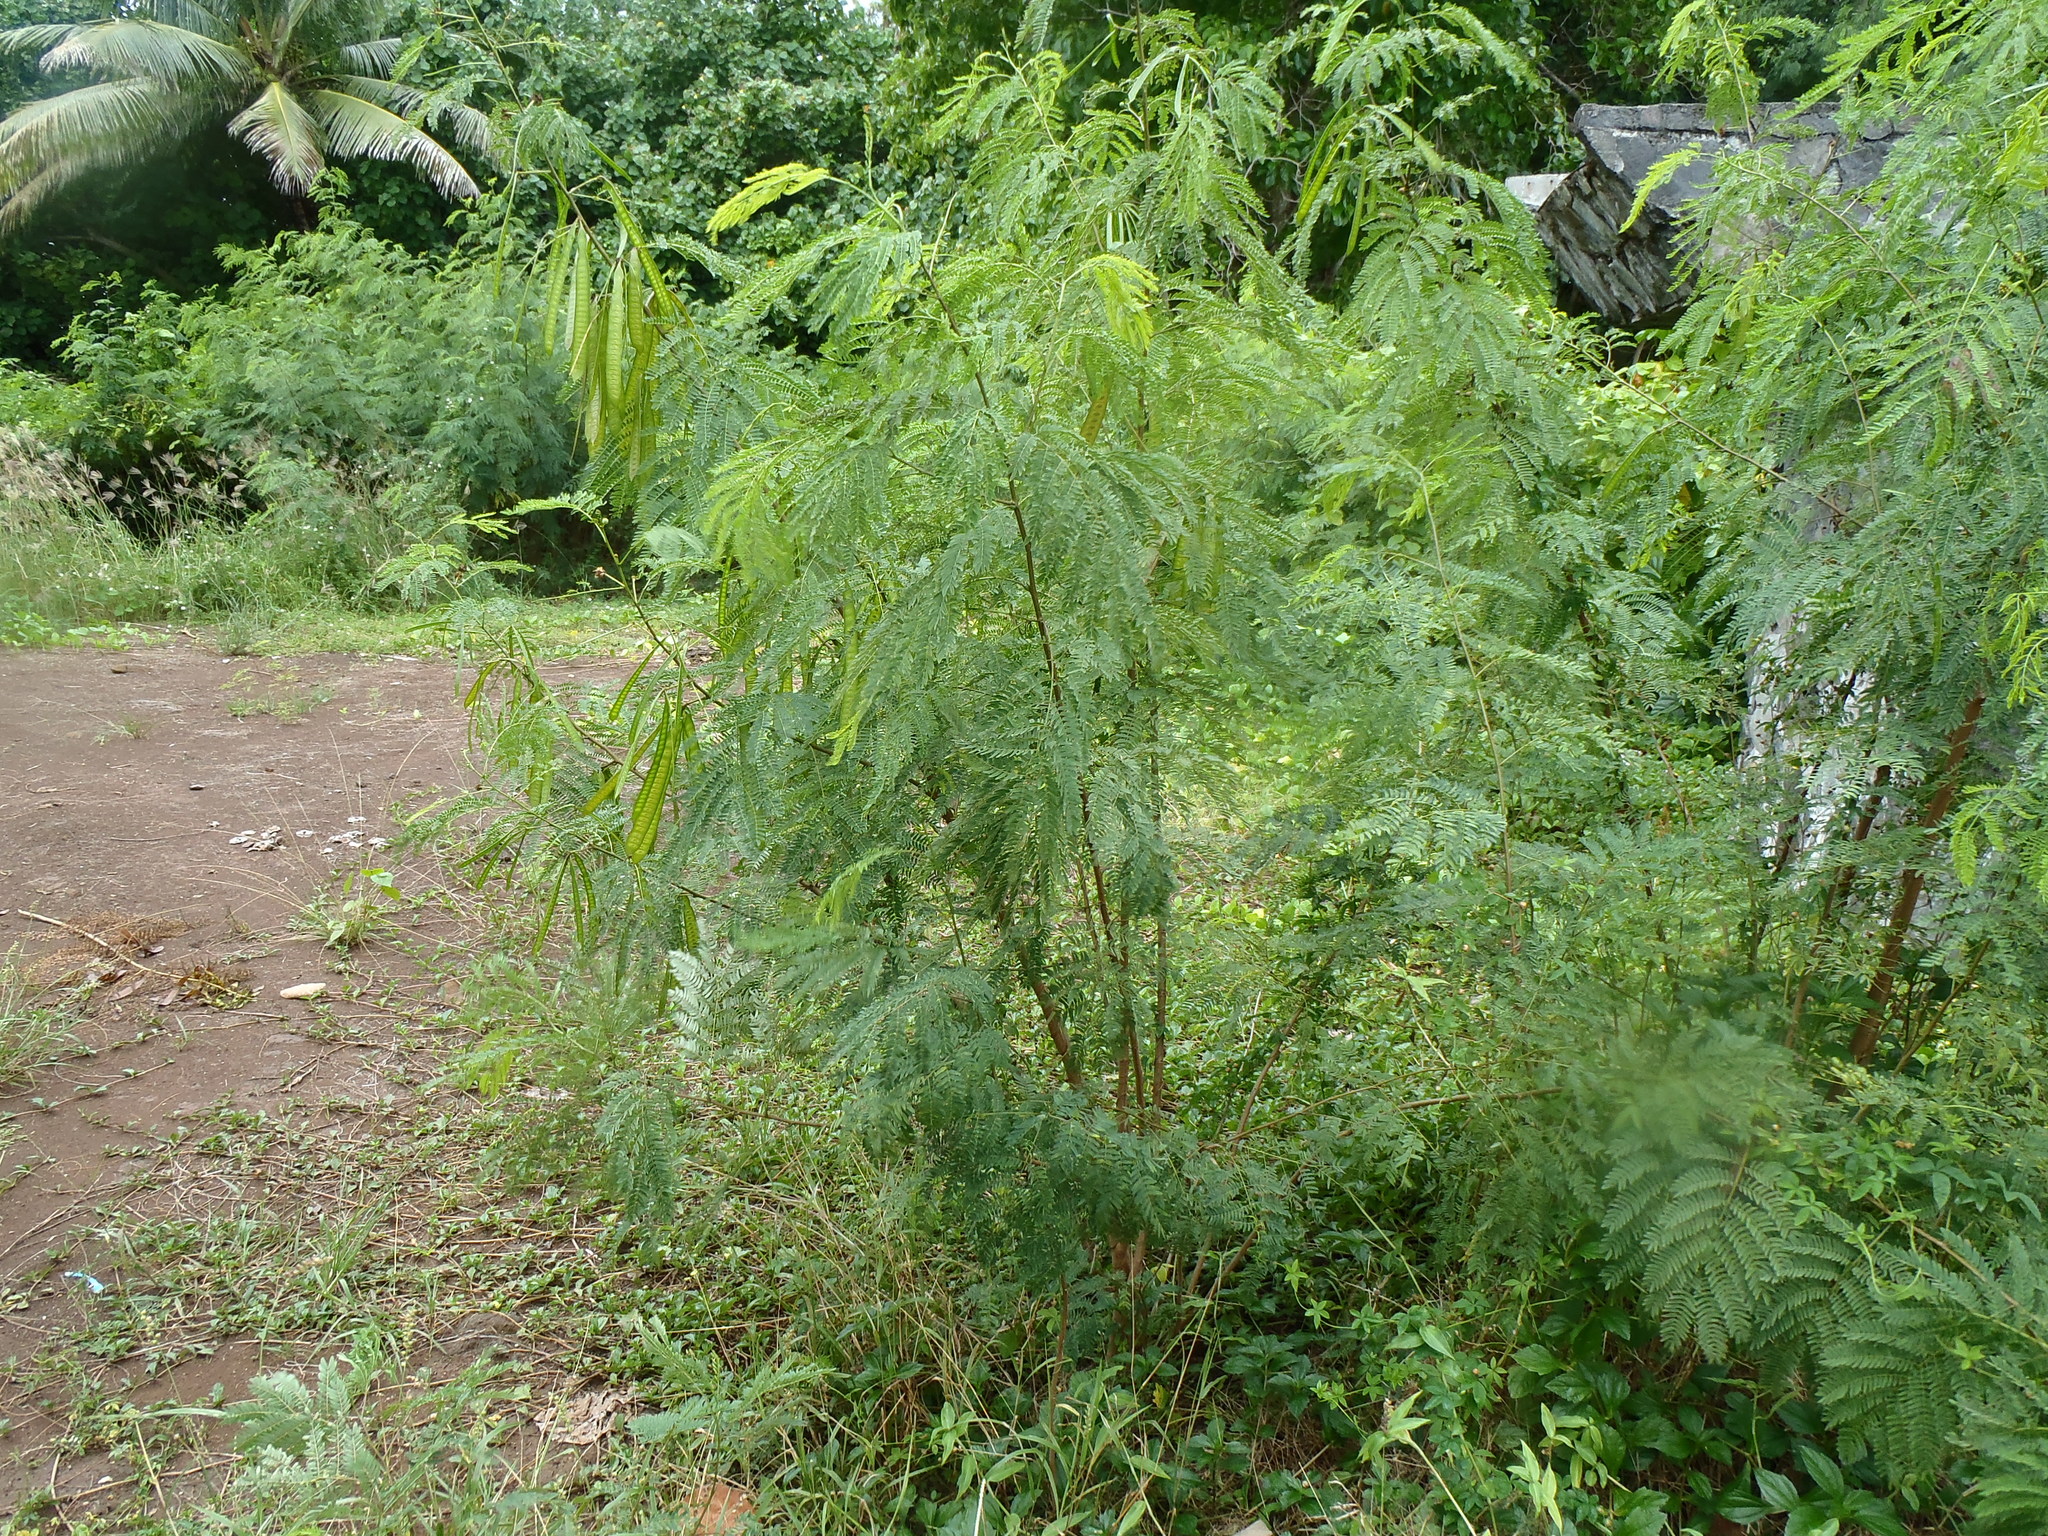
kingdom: Plantae
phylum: Tracheophyta
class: Magnoliopsida
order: Fabales
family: Fabaceae
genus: Leucaena
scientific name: Leucaena leucocephala
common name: White leadtree
